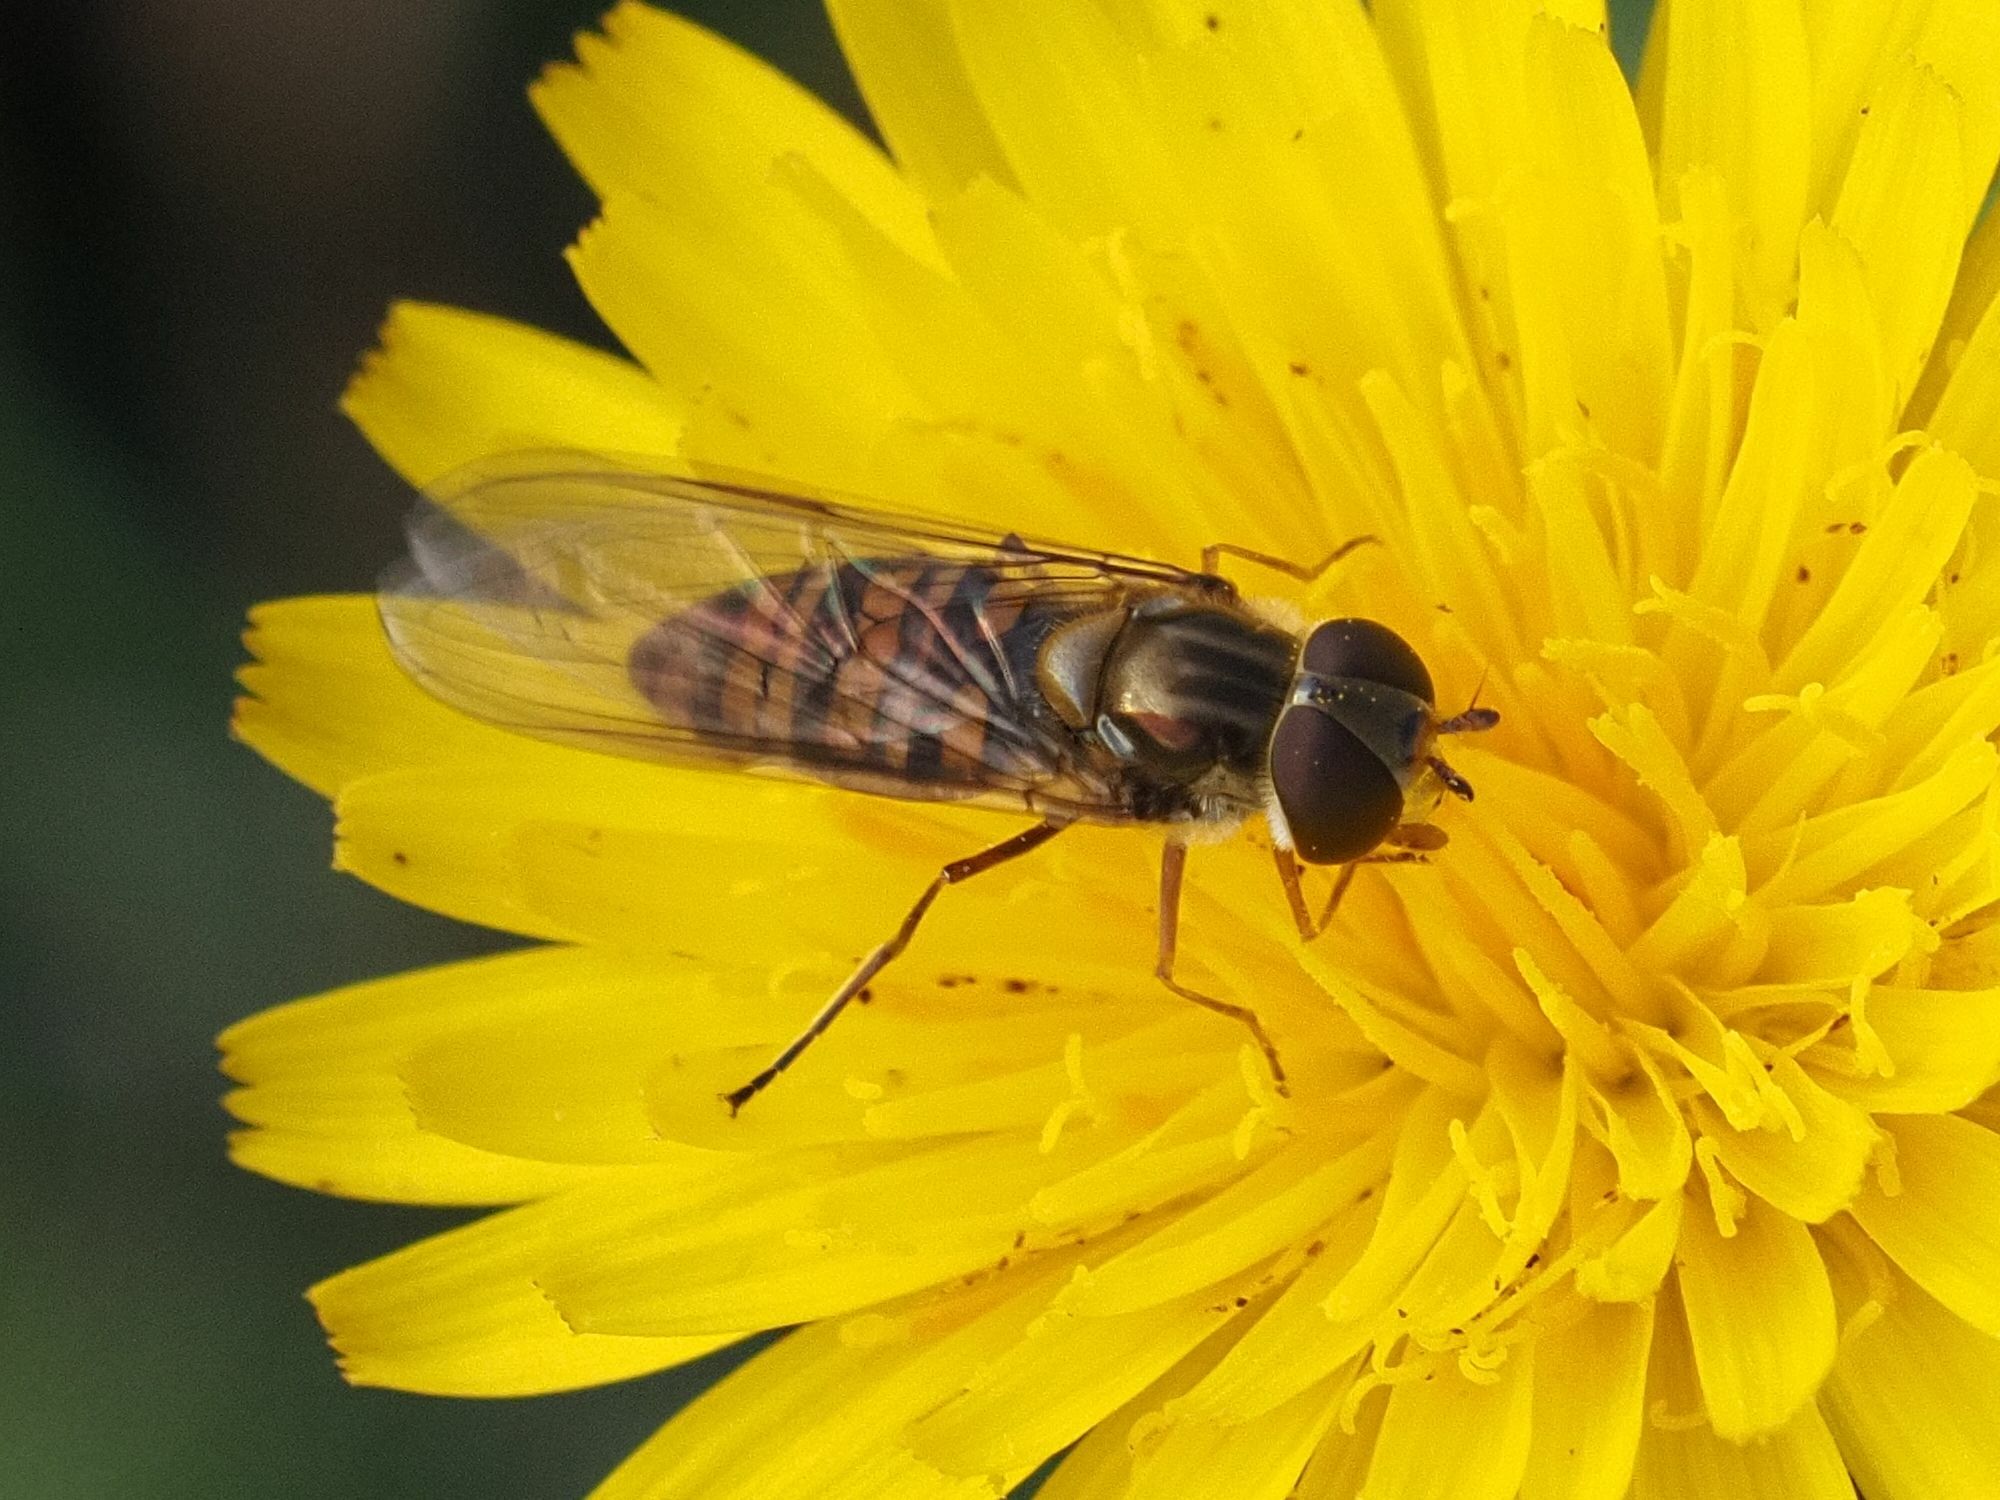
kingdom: Animalia
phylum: Arthropoda
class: Insecta
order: Diptera
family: Syrphidae
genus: Episyrphus
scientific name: Episyrphus balteatus
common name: Marmalade hoverfly
